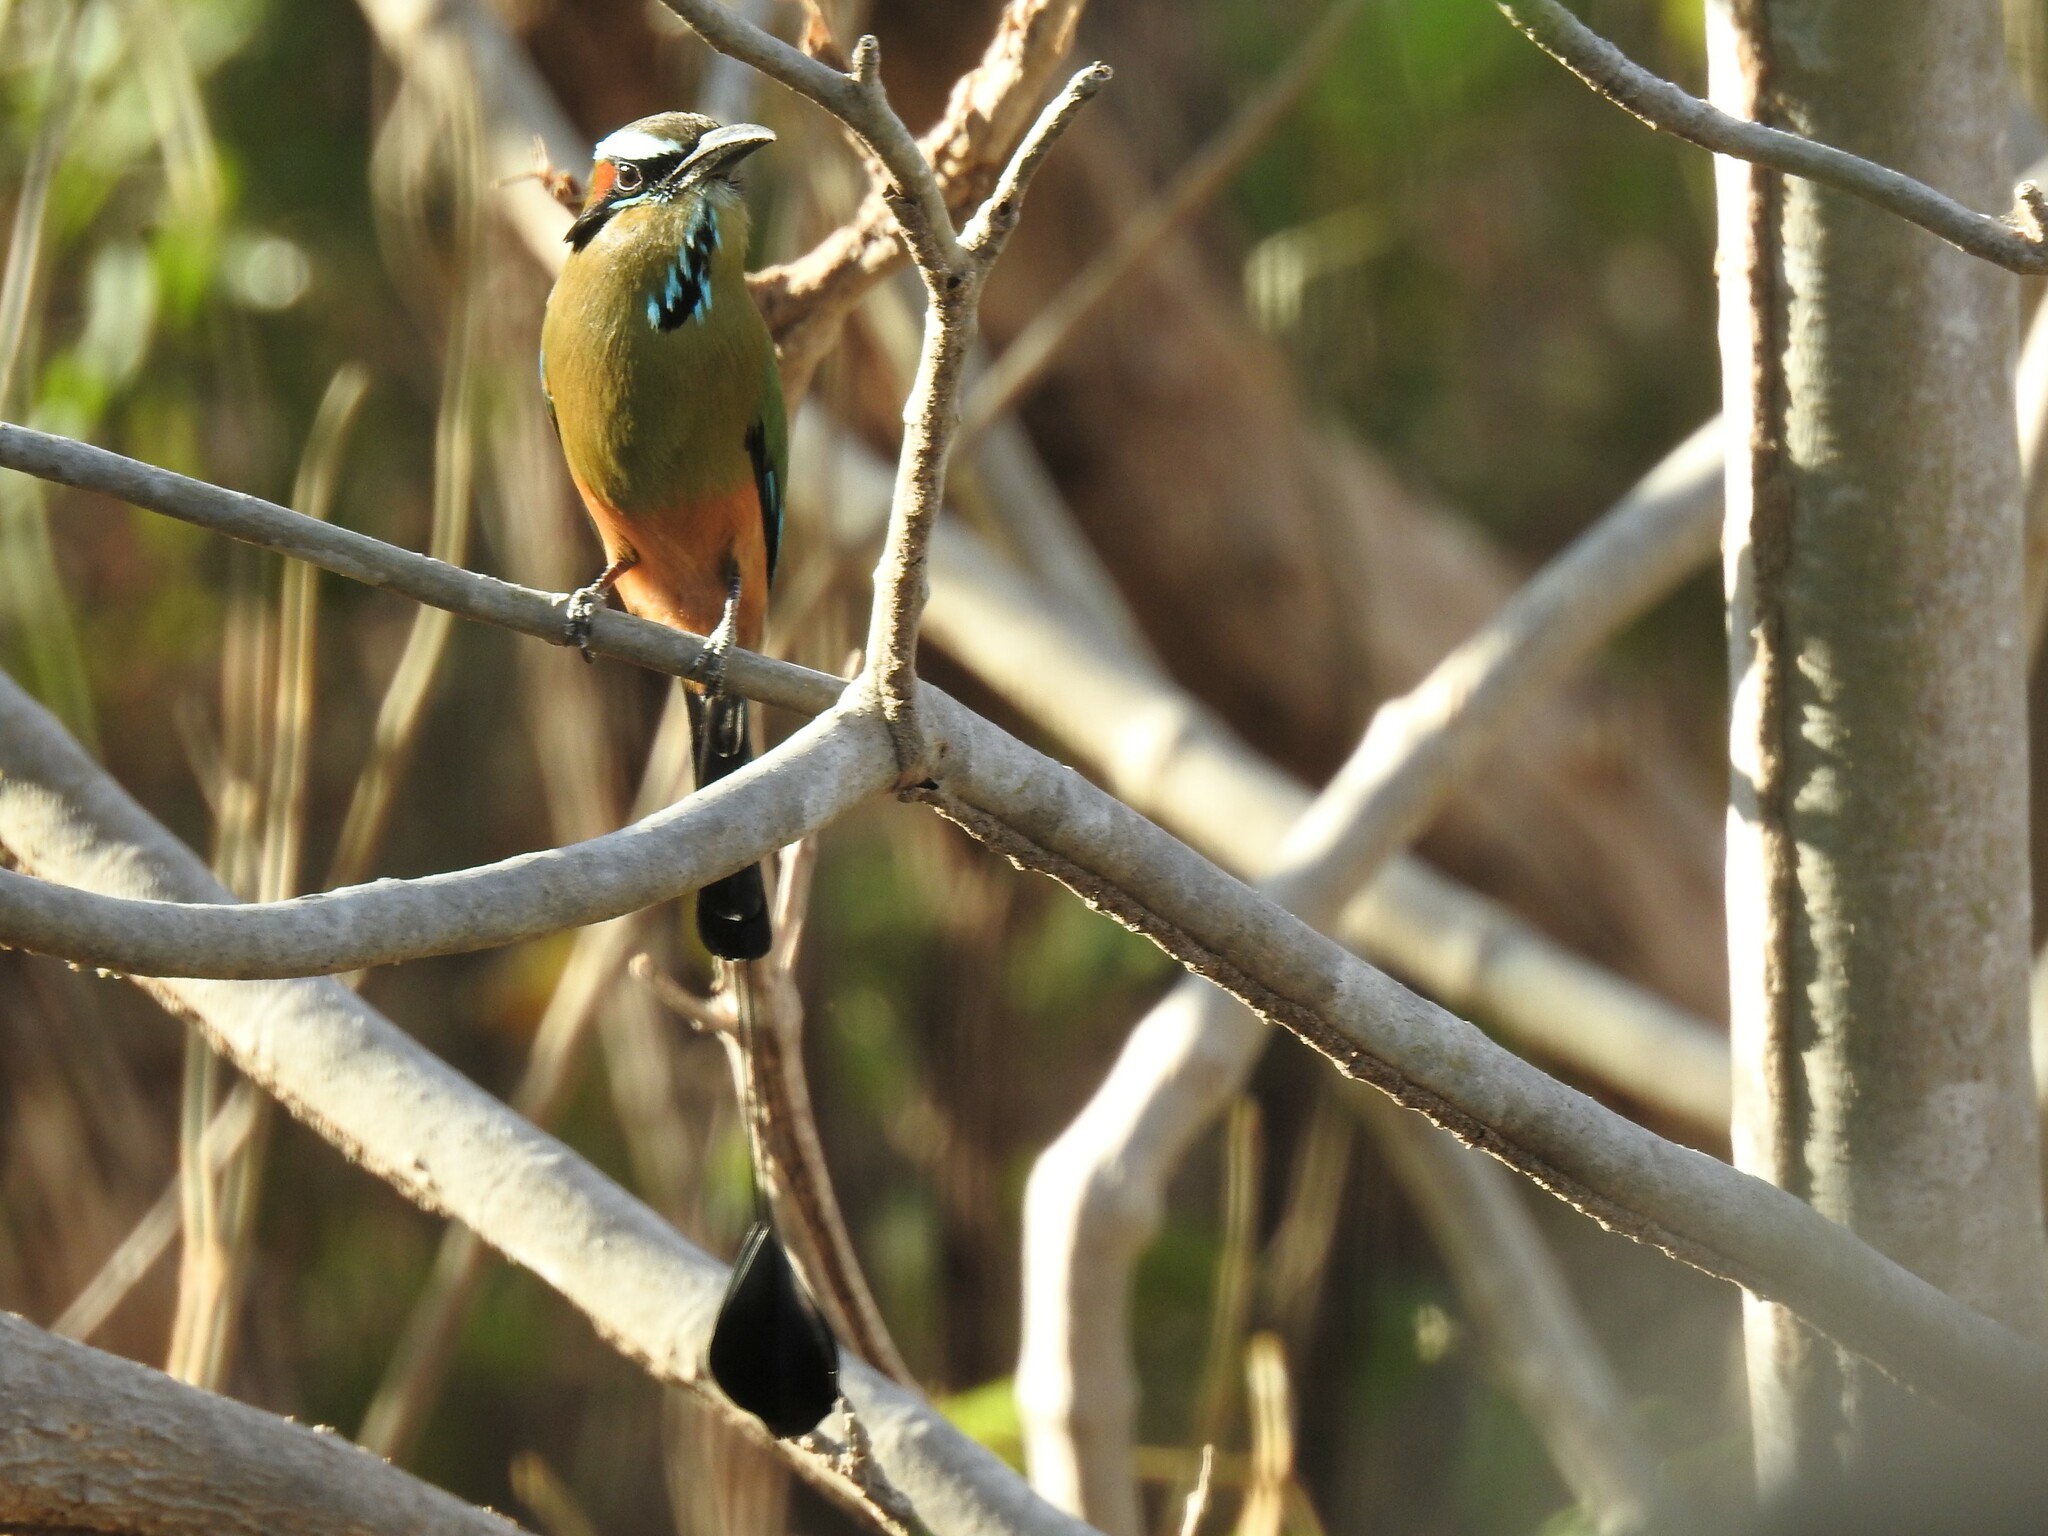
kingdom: Animalia
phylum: Chordata
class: Aves
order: Coraciiformes
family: Momotidae
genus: Eumomota
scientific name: Eumomota superciliosa
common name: Turquoise-browed motmot
